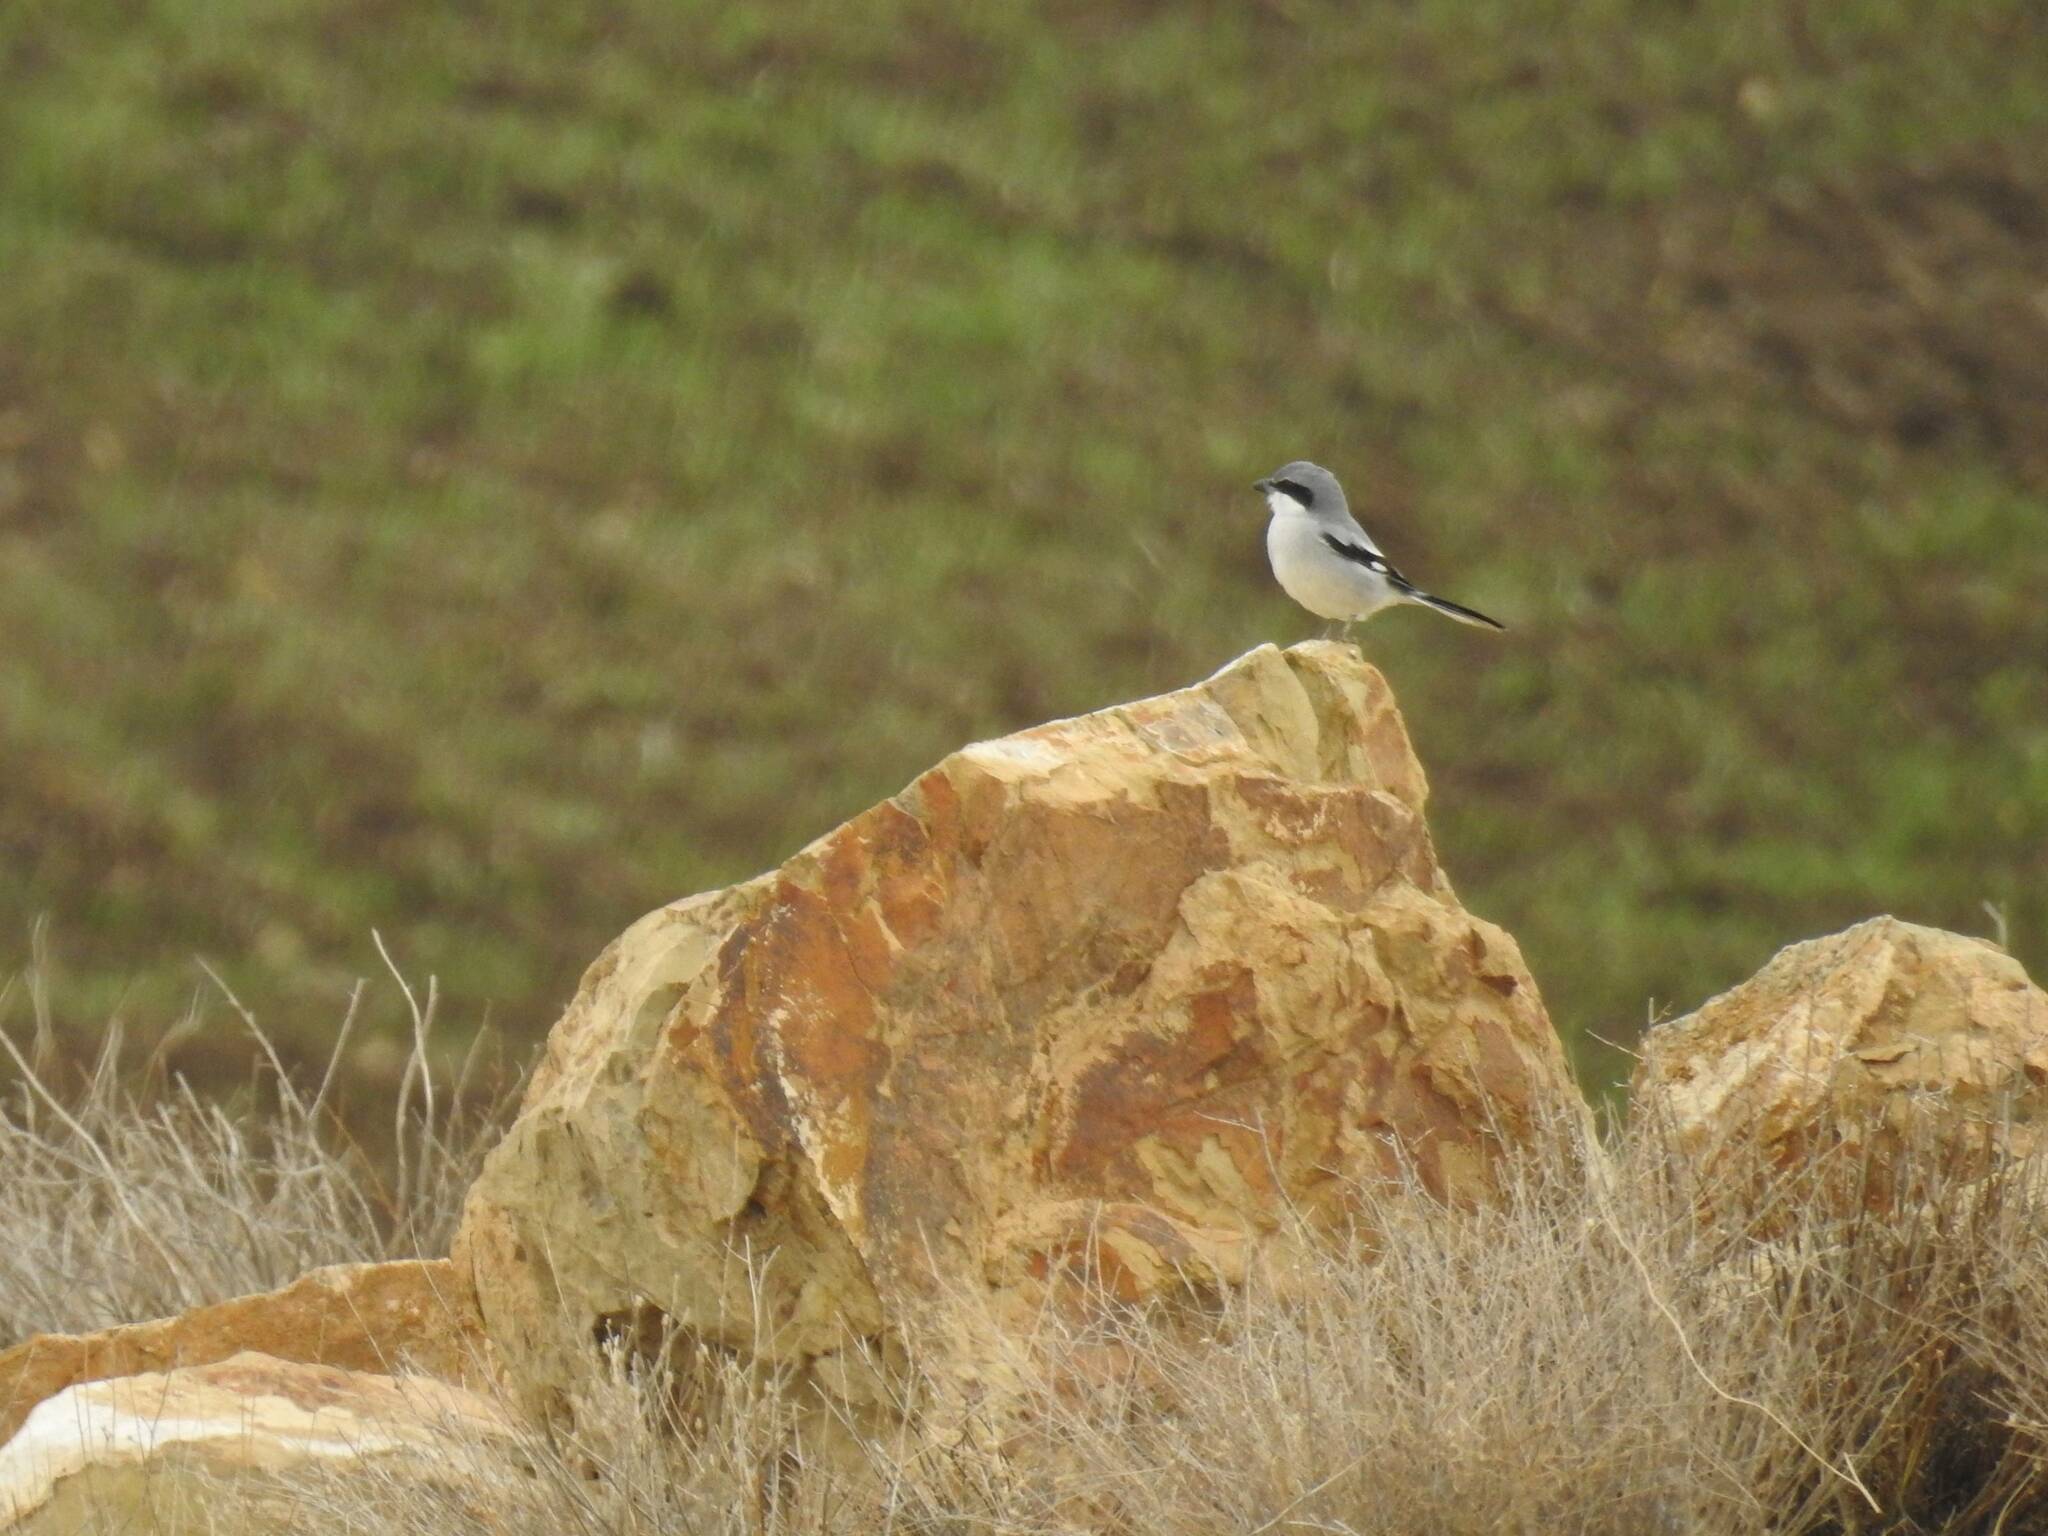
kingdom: Animalia
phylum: Chordata
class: Aves
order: Passeriformes
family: Laniidae
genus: Lanius
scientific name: Lanius excubitor
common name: Great grey shrike
